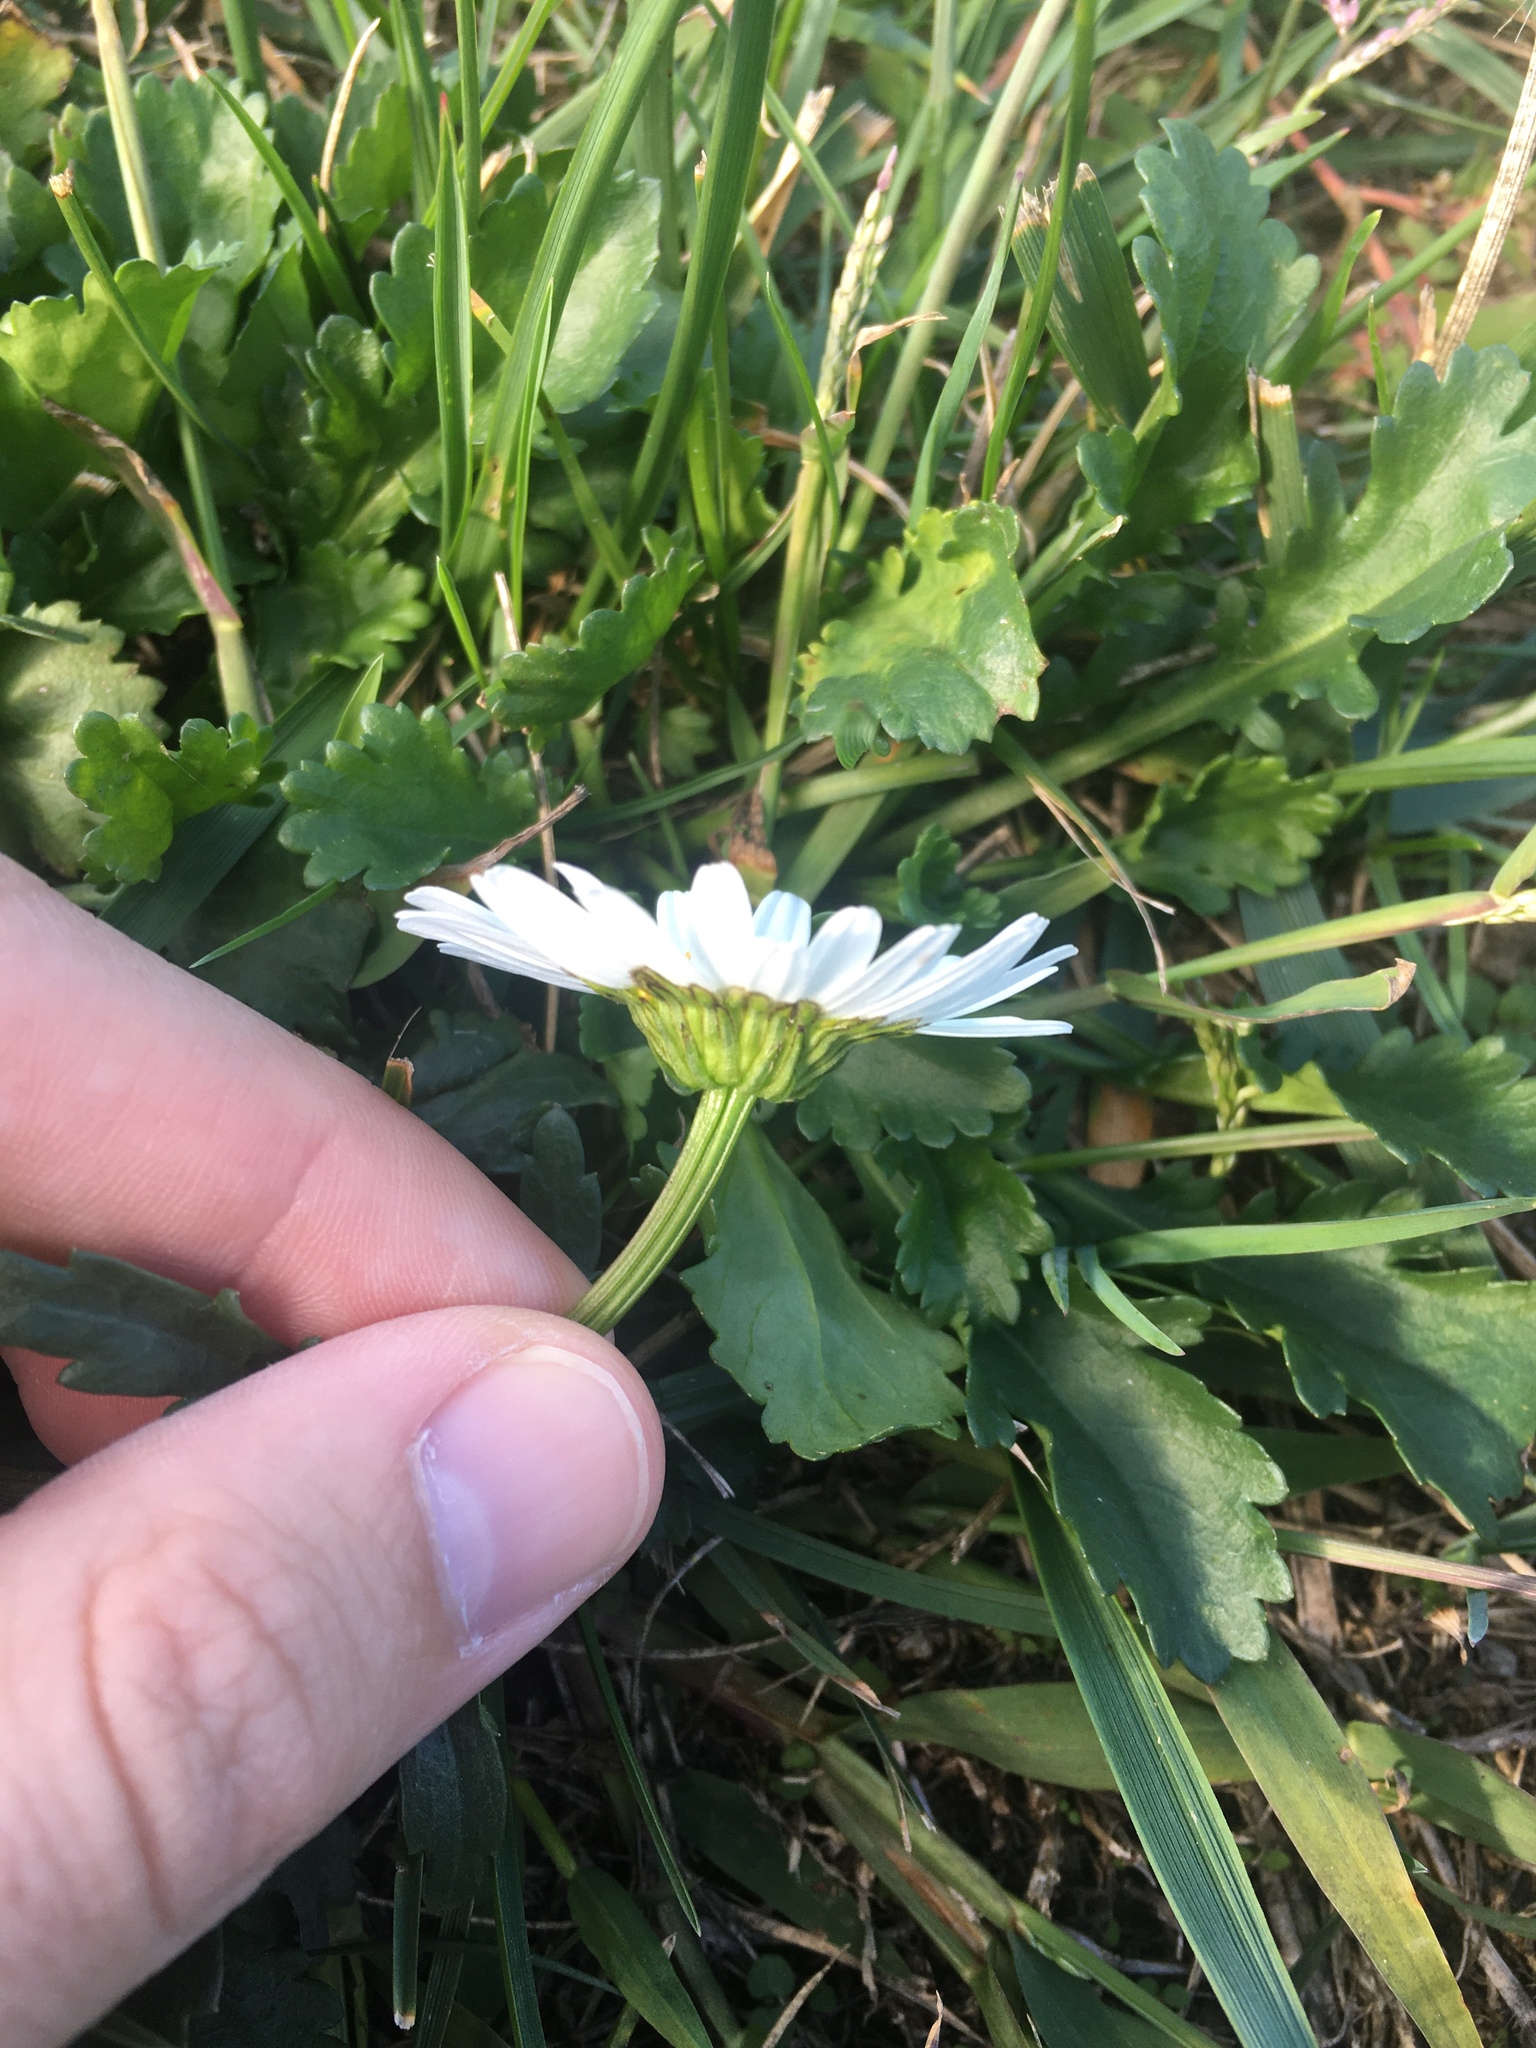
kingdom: Plantae
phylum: Tracheophyta
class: Magnoliopsida
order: Asterales
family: Asteraceae
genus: Leucanthemum
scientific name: Leucanthemum vulgare
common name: Oxeye daisy
